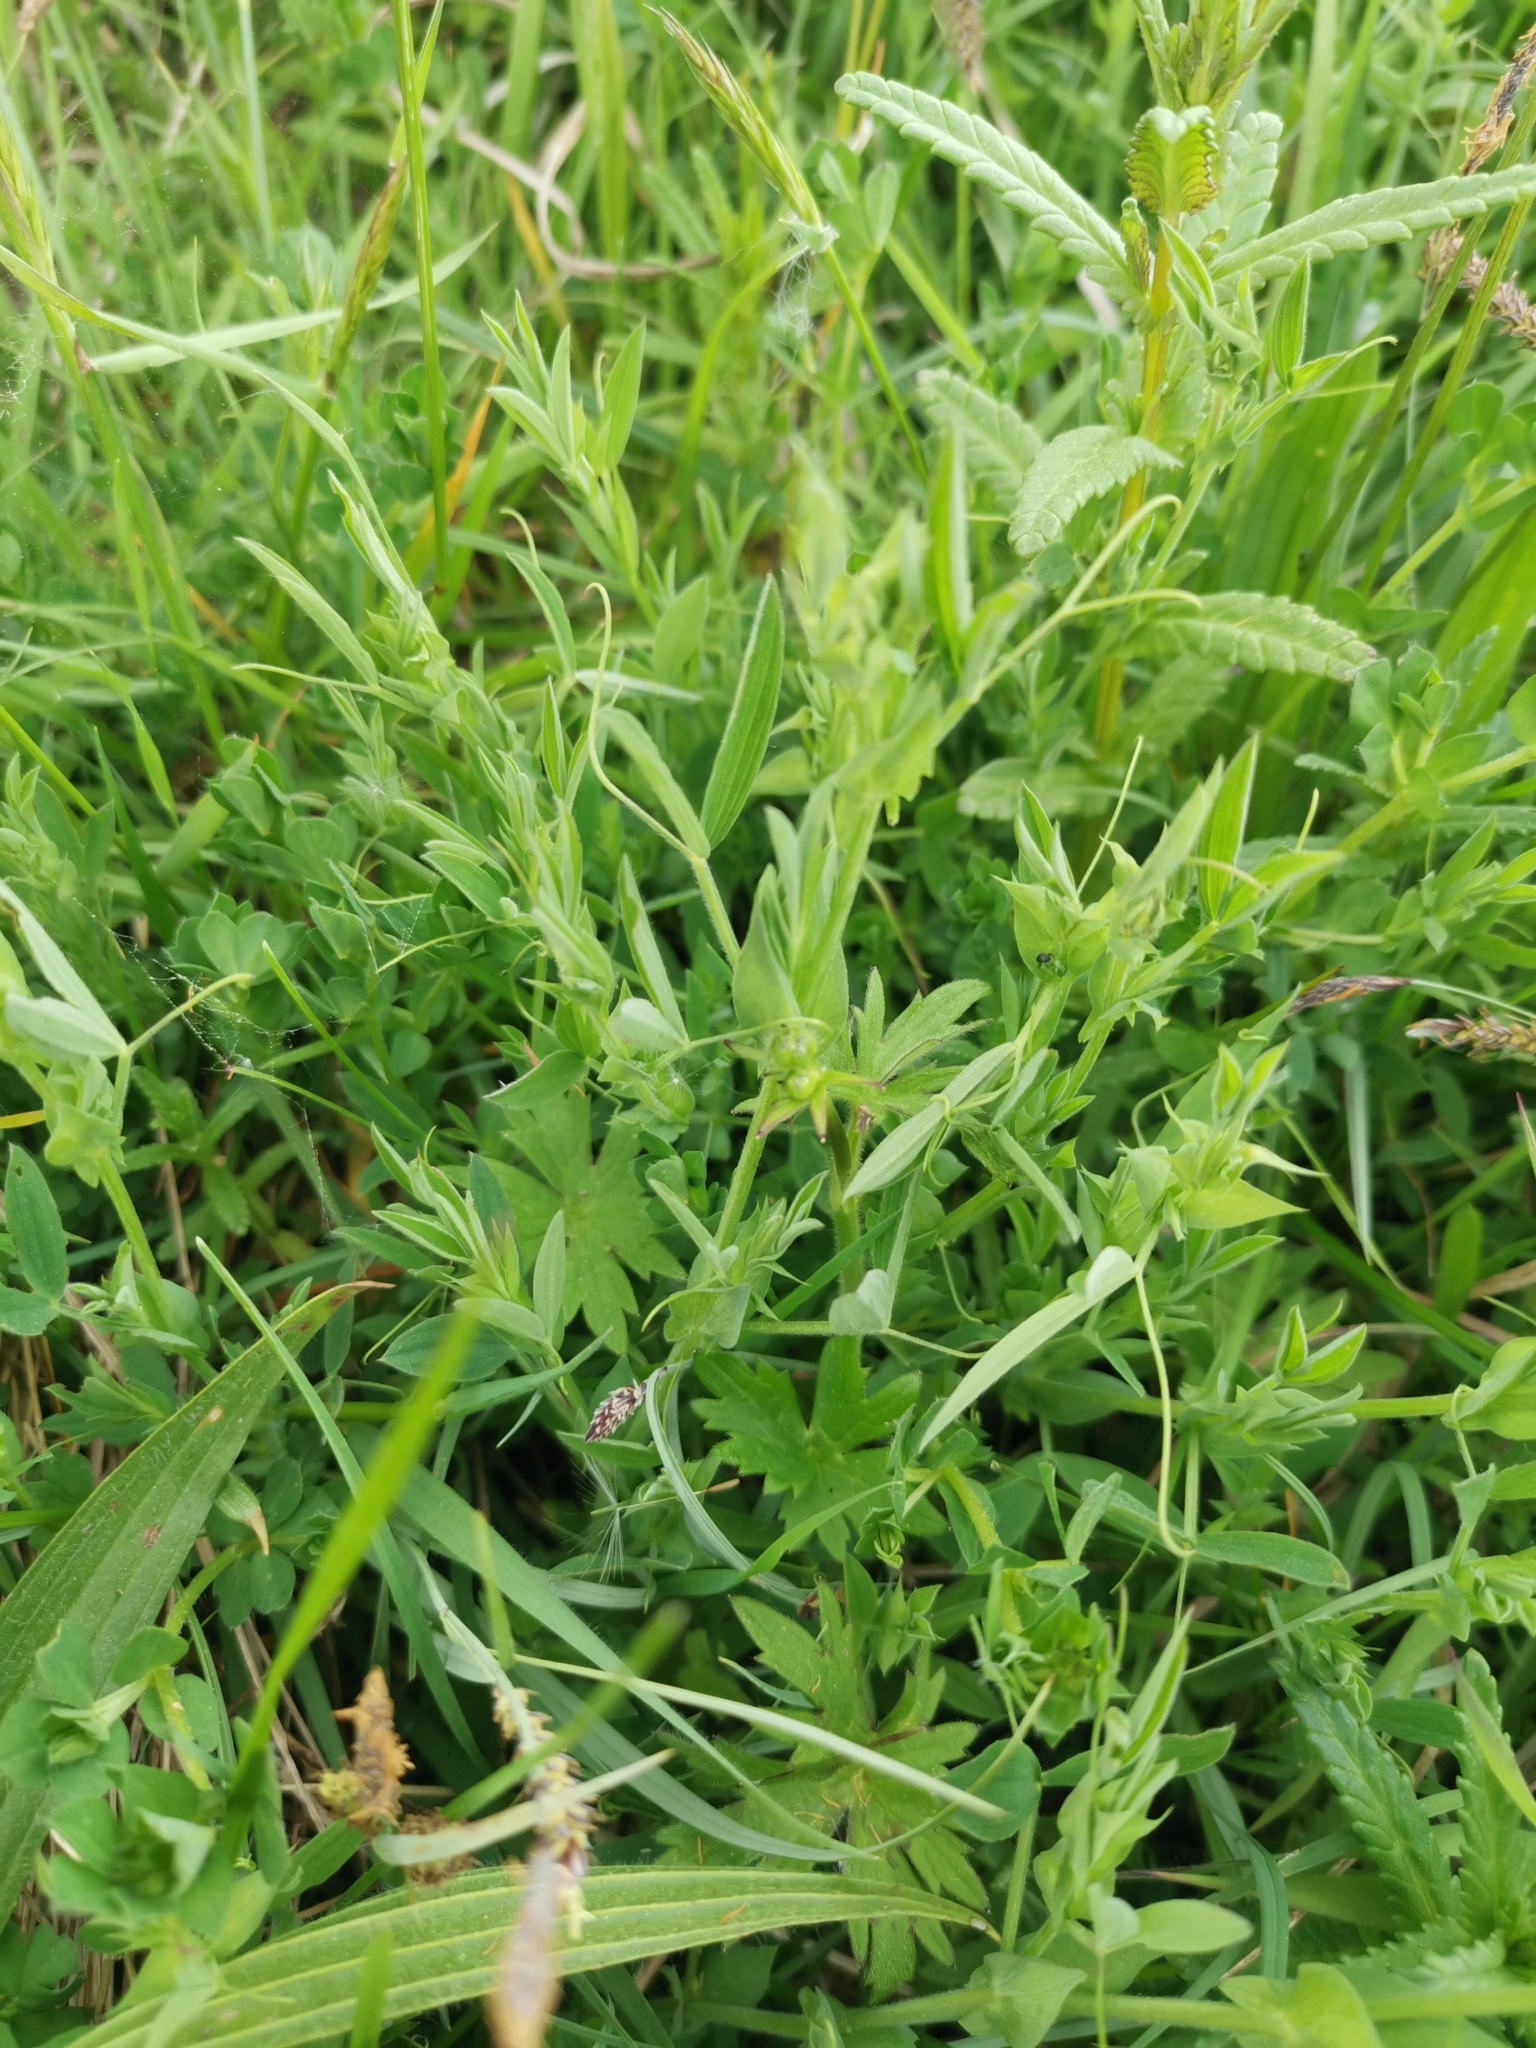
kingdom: Plantae
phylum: Tracheophyta
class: Magnoliopsida
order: Fabales
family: Fabaceae
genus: Lathyrus
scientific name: Lathyrus pratensis
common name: Meadow vetchling
